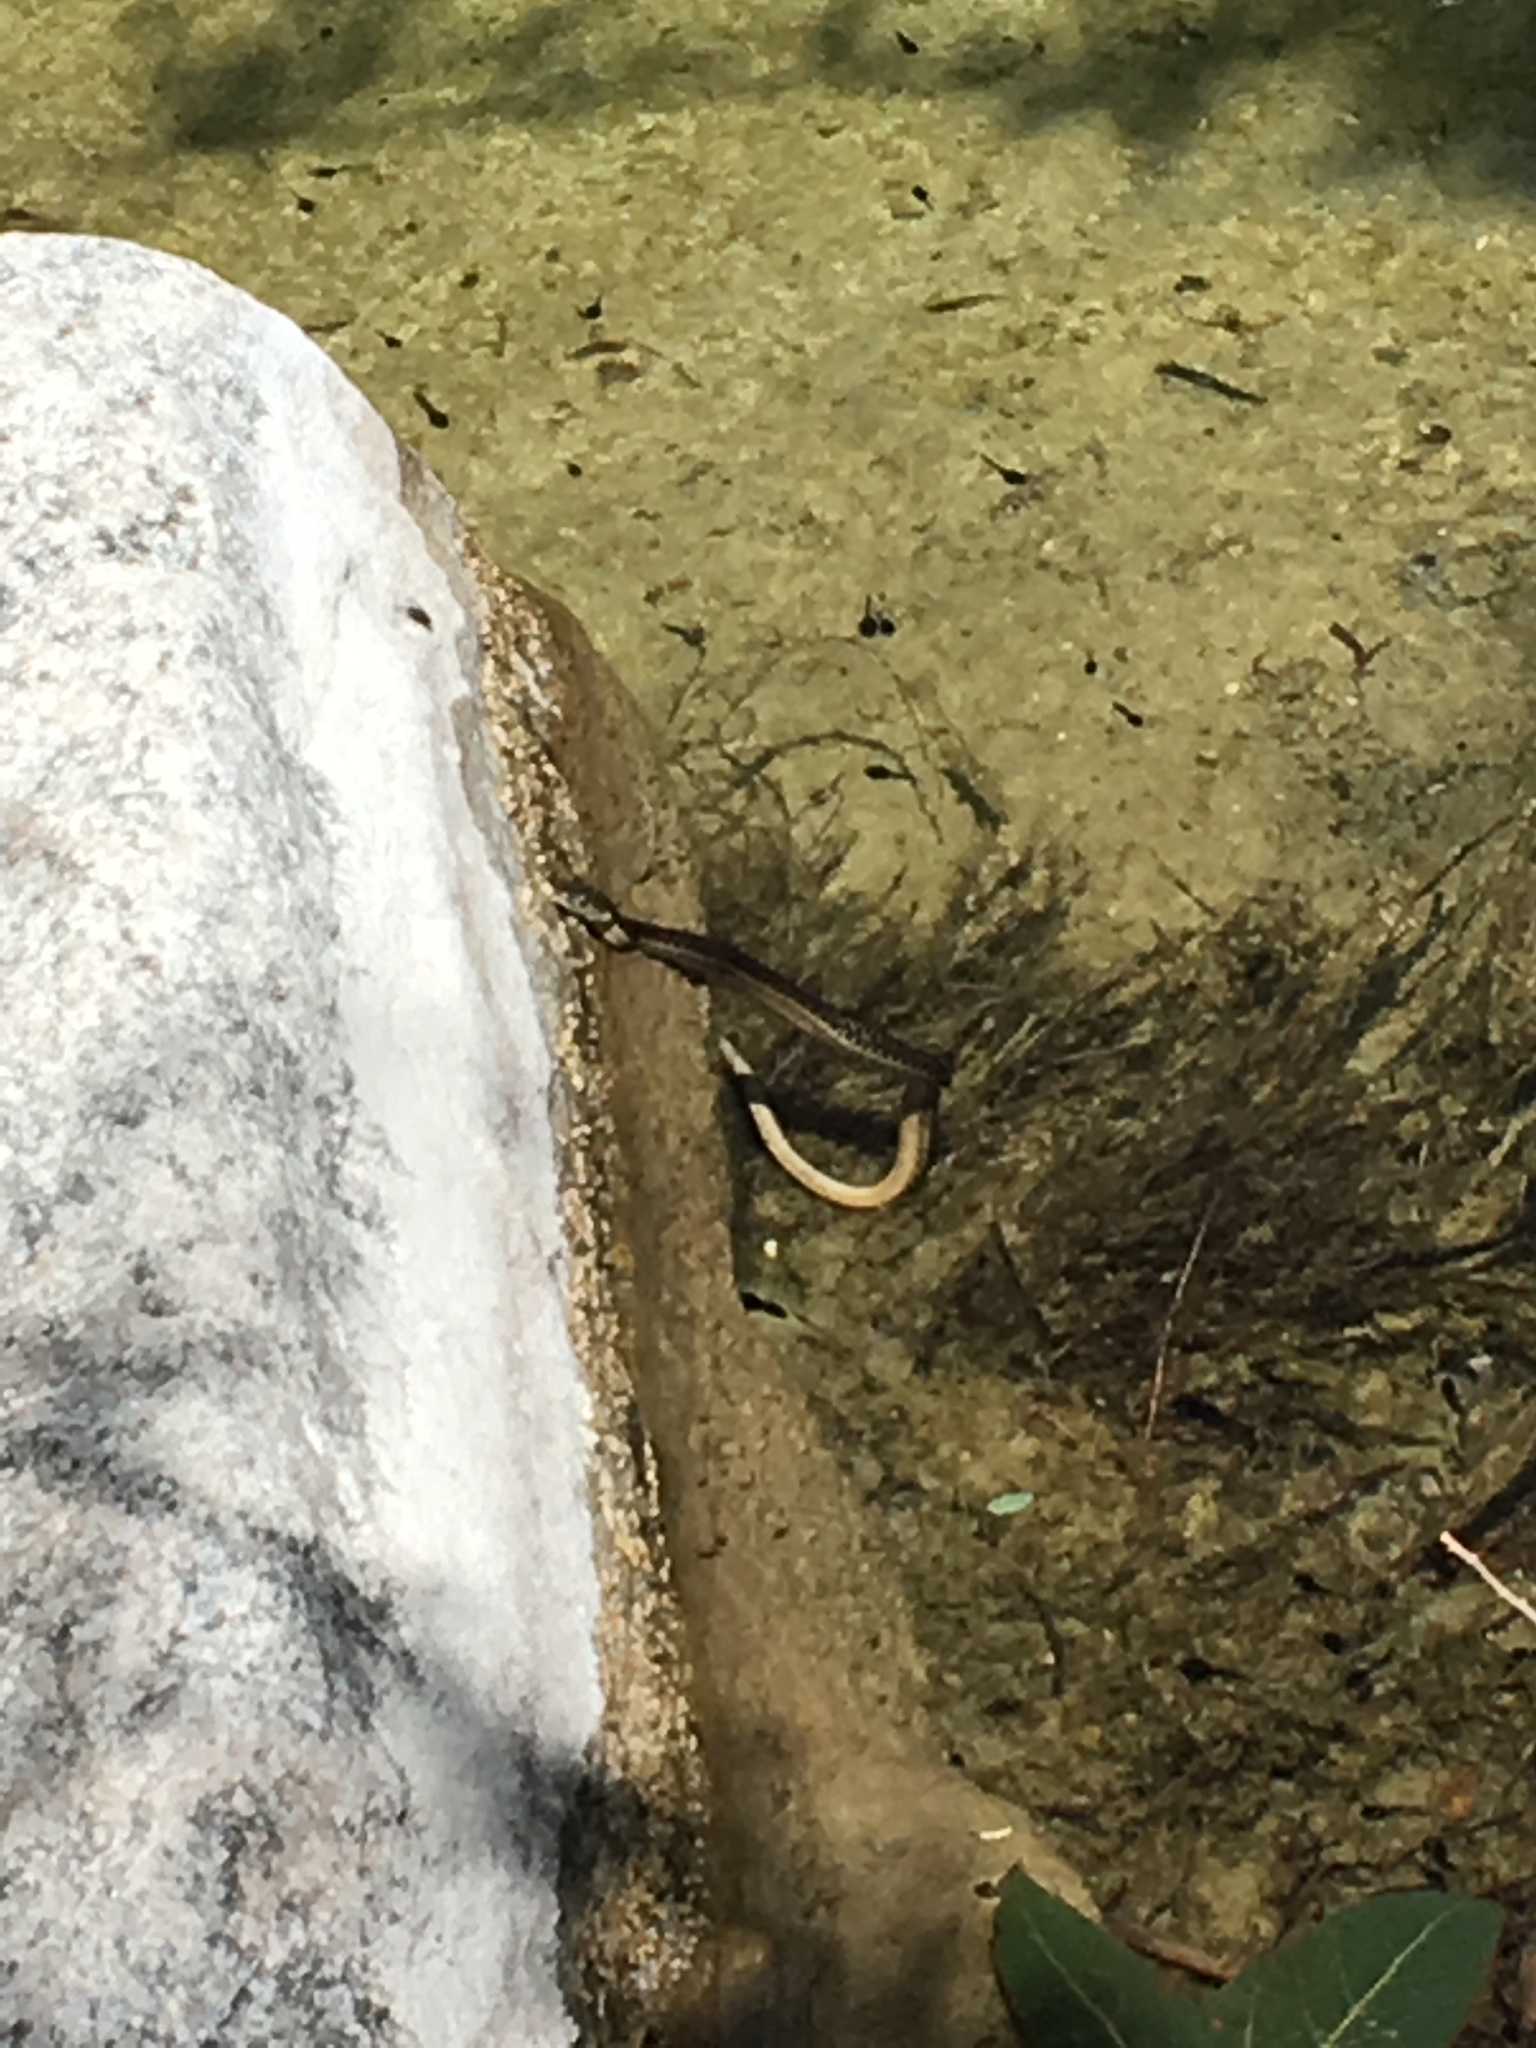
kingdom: Animalia
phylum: Chordata
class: Squamata
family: Colubridae
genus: Thamnophis
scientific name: Thamnophis hammondii
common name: Two-striped garter snake
